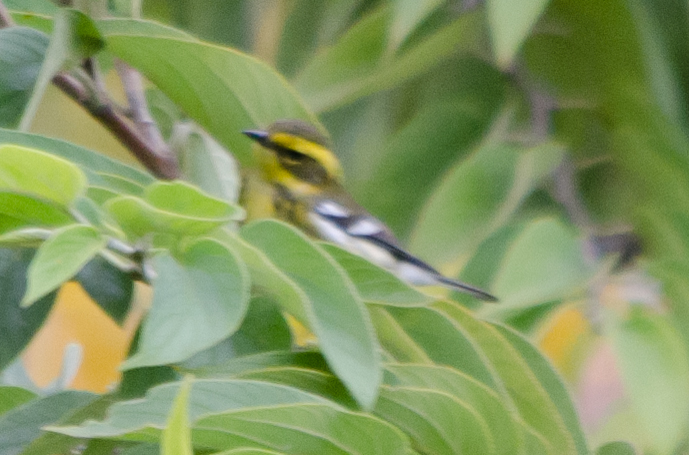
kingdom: Animalia
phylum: Chordata
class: Aves
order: Passeriformes
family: Parulidae
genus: Setophaga
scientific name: Setophaga townsendi
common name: Townsend's warbler
